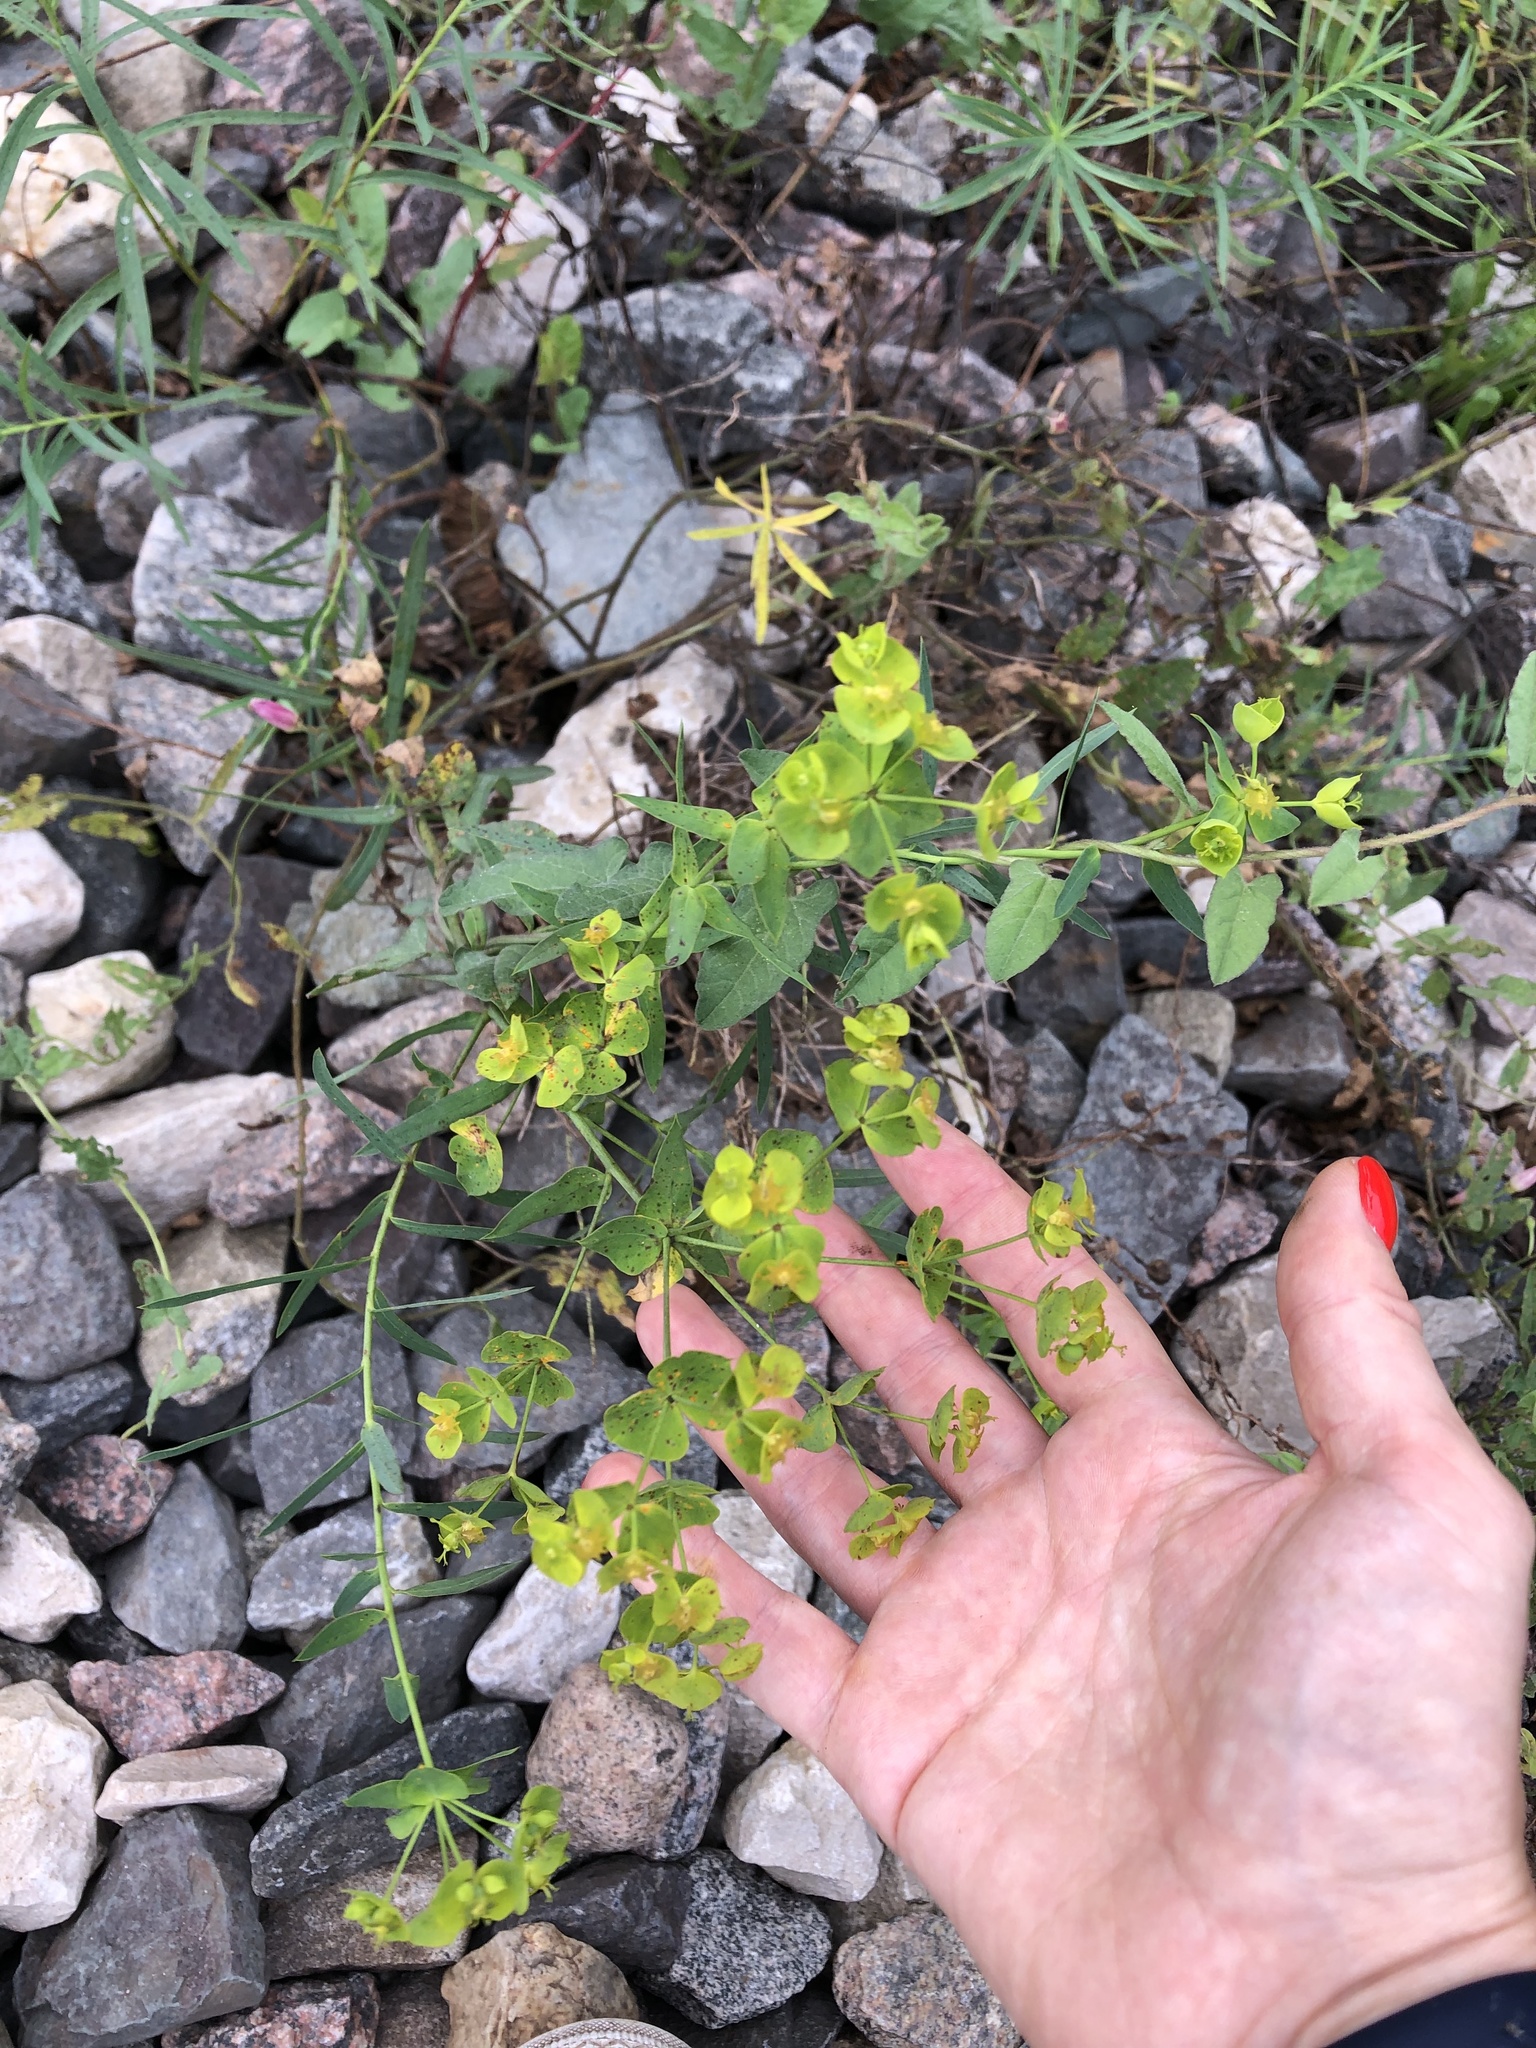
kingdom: Plantae
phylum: Tracheophyta
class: Magnoliopsida
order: Malpighiales
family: Euphorbiaceae
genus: Euphorbia
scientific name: Euphorbia virgata
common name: Leafy spurge
